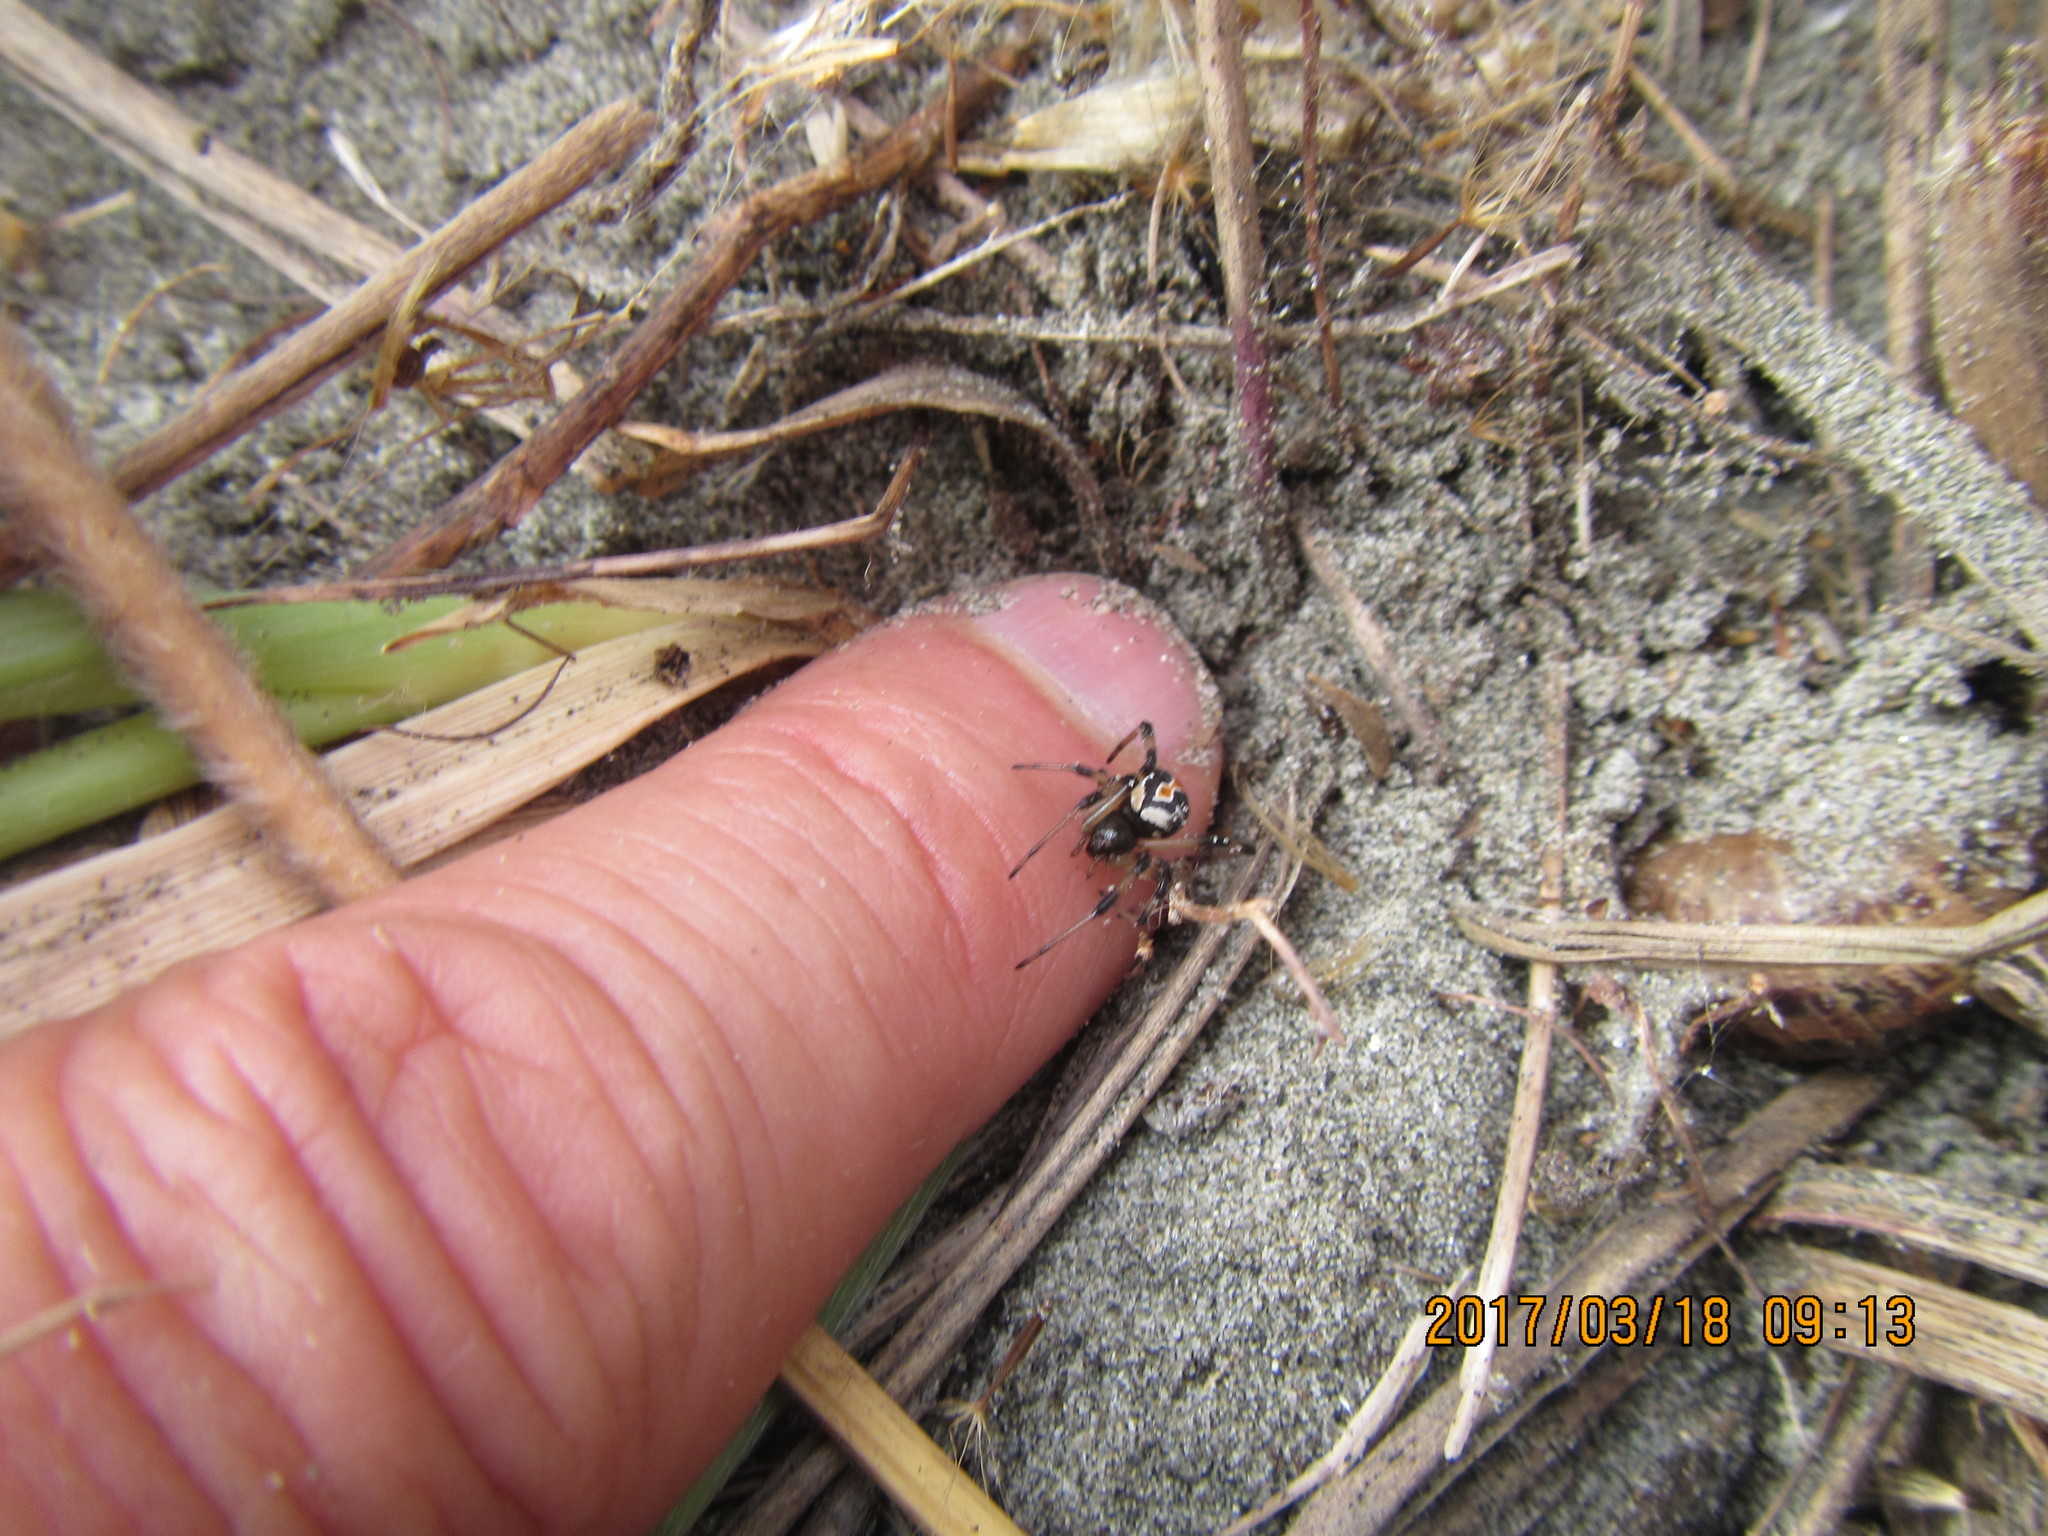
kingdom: Animalia
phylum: Arthropoda
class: Arachnida
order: Araneae
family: Theridiidae
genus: Latrodectus
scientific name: Latrodectus katipo
